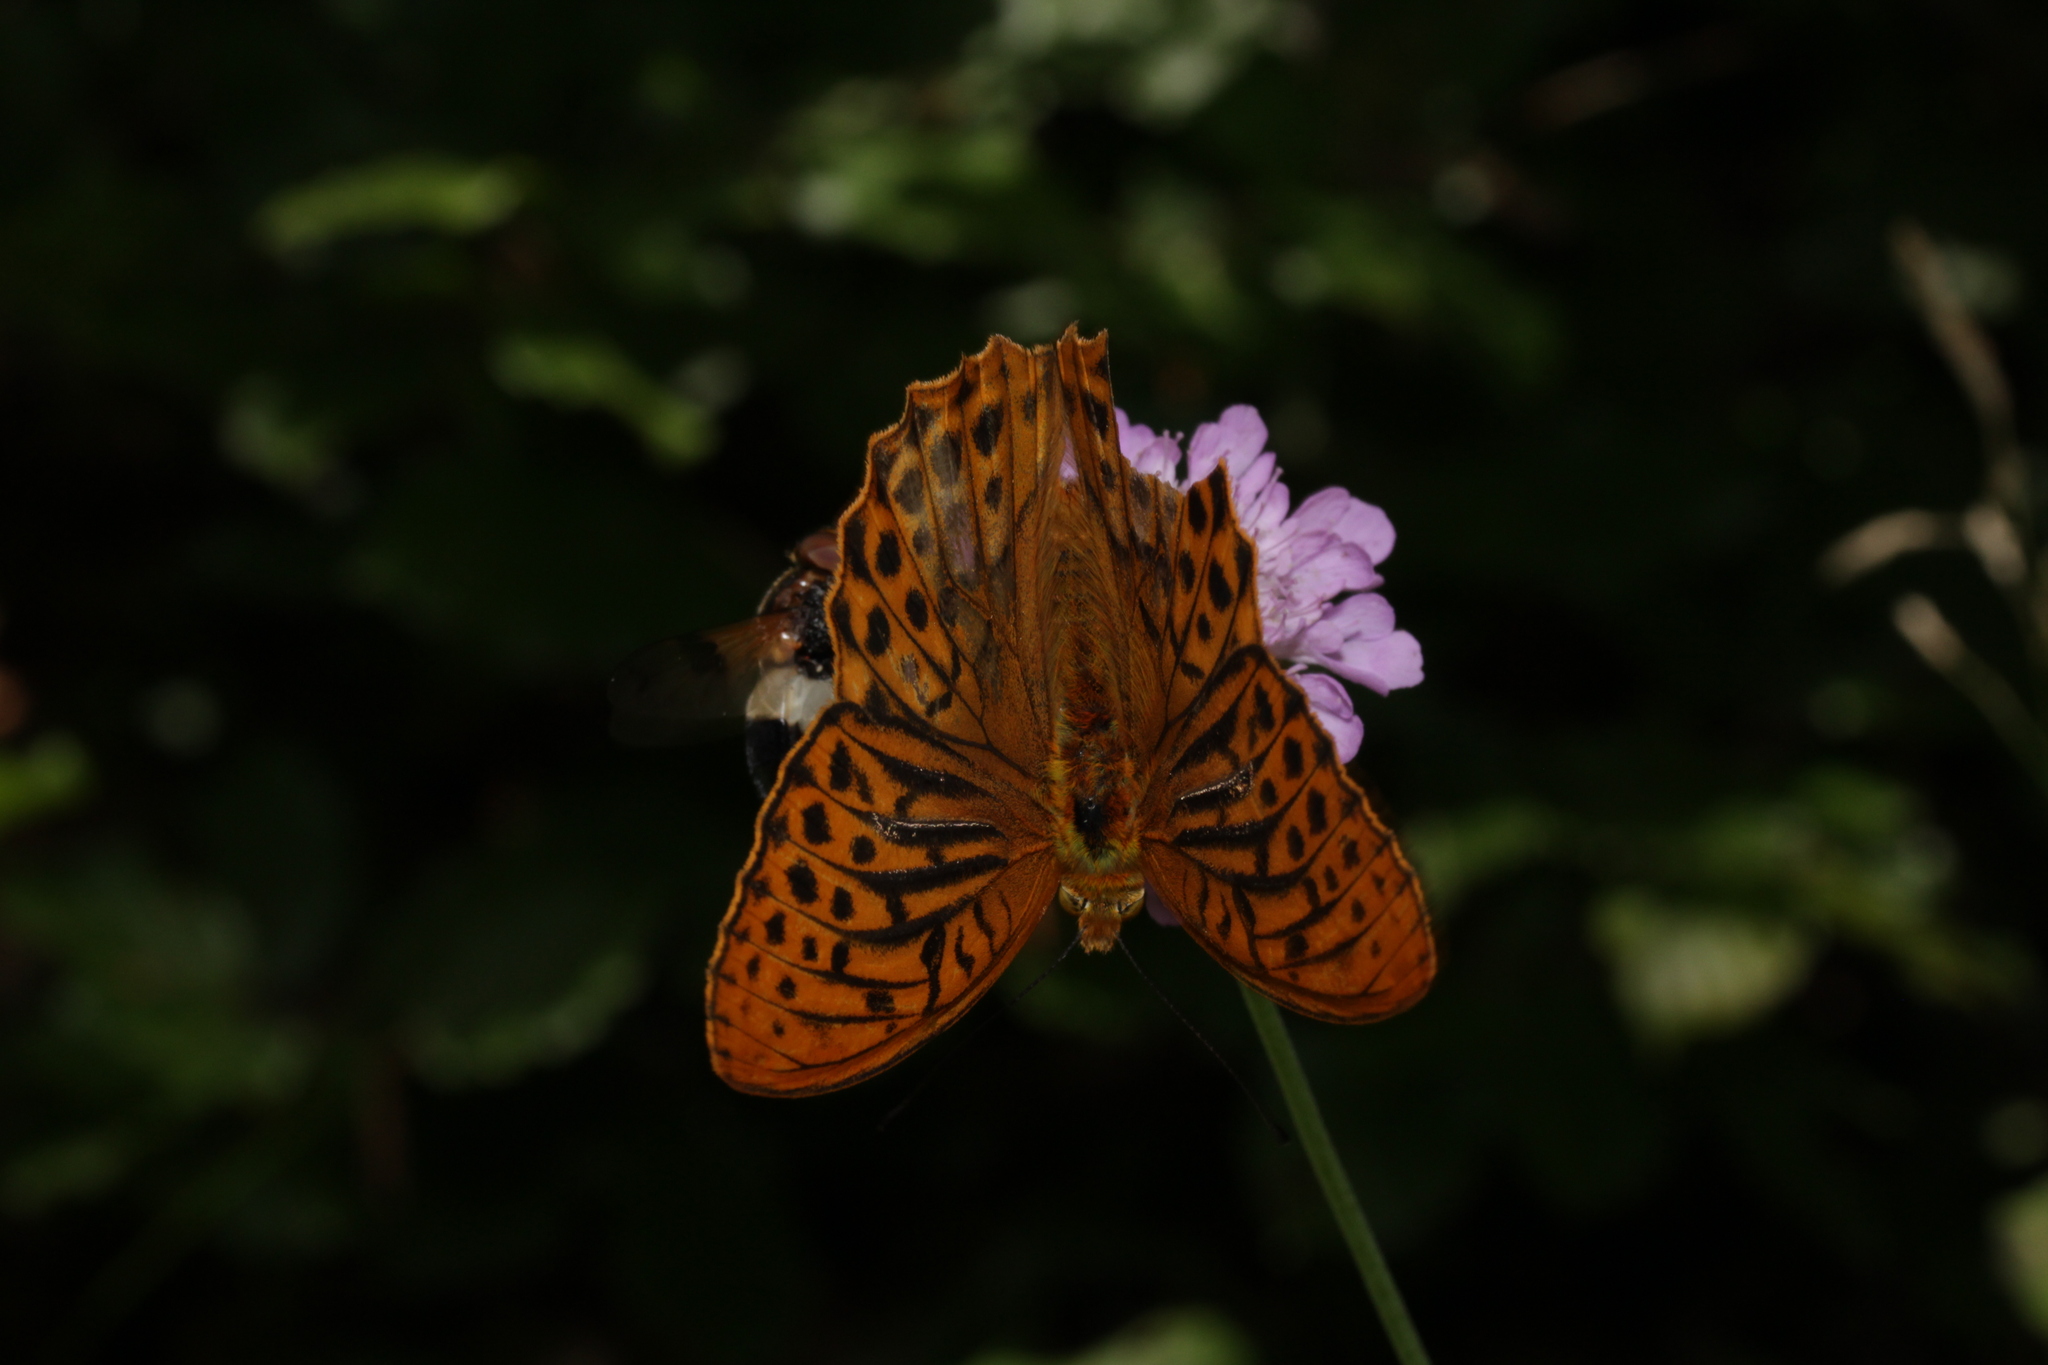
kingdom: Animalia
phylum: Arthropoda
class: Insecta
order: Lepidoptera
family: Nymphalidae
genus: Argynnis
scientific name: Argynnis paphia
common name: Silver-washed fritillary
